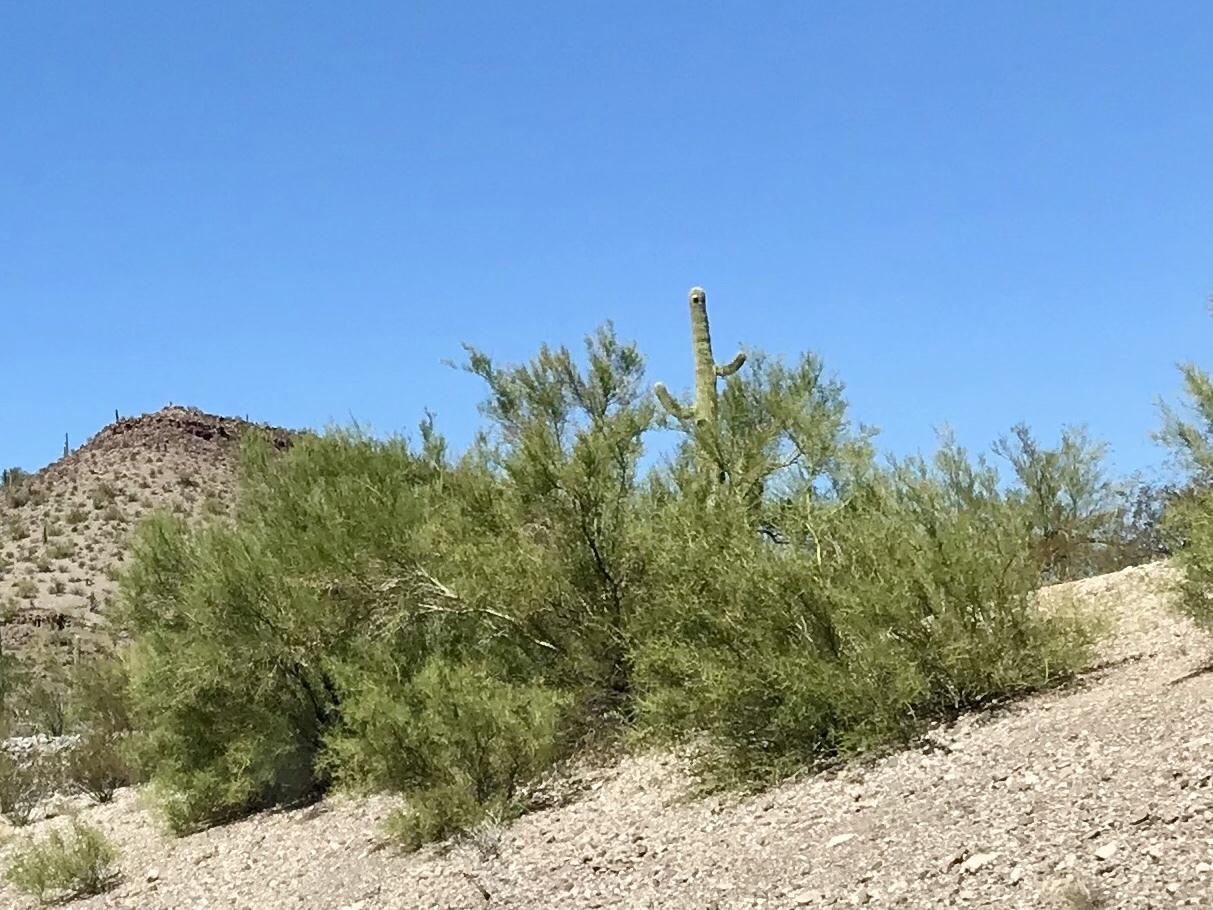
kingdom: Plantae
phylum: Tracheophyta
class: Magnoliopsida
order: Fabales
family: Fabaceae
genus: Parkinsonia
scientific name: Parkinsonia florida
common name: Blue paloverde
